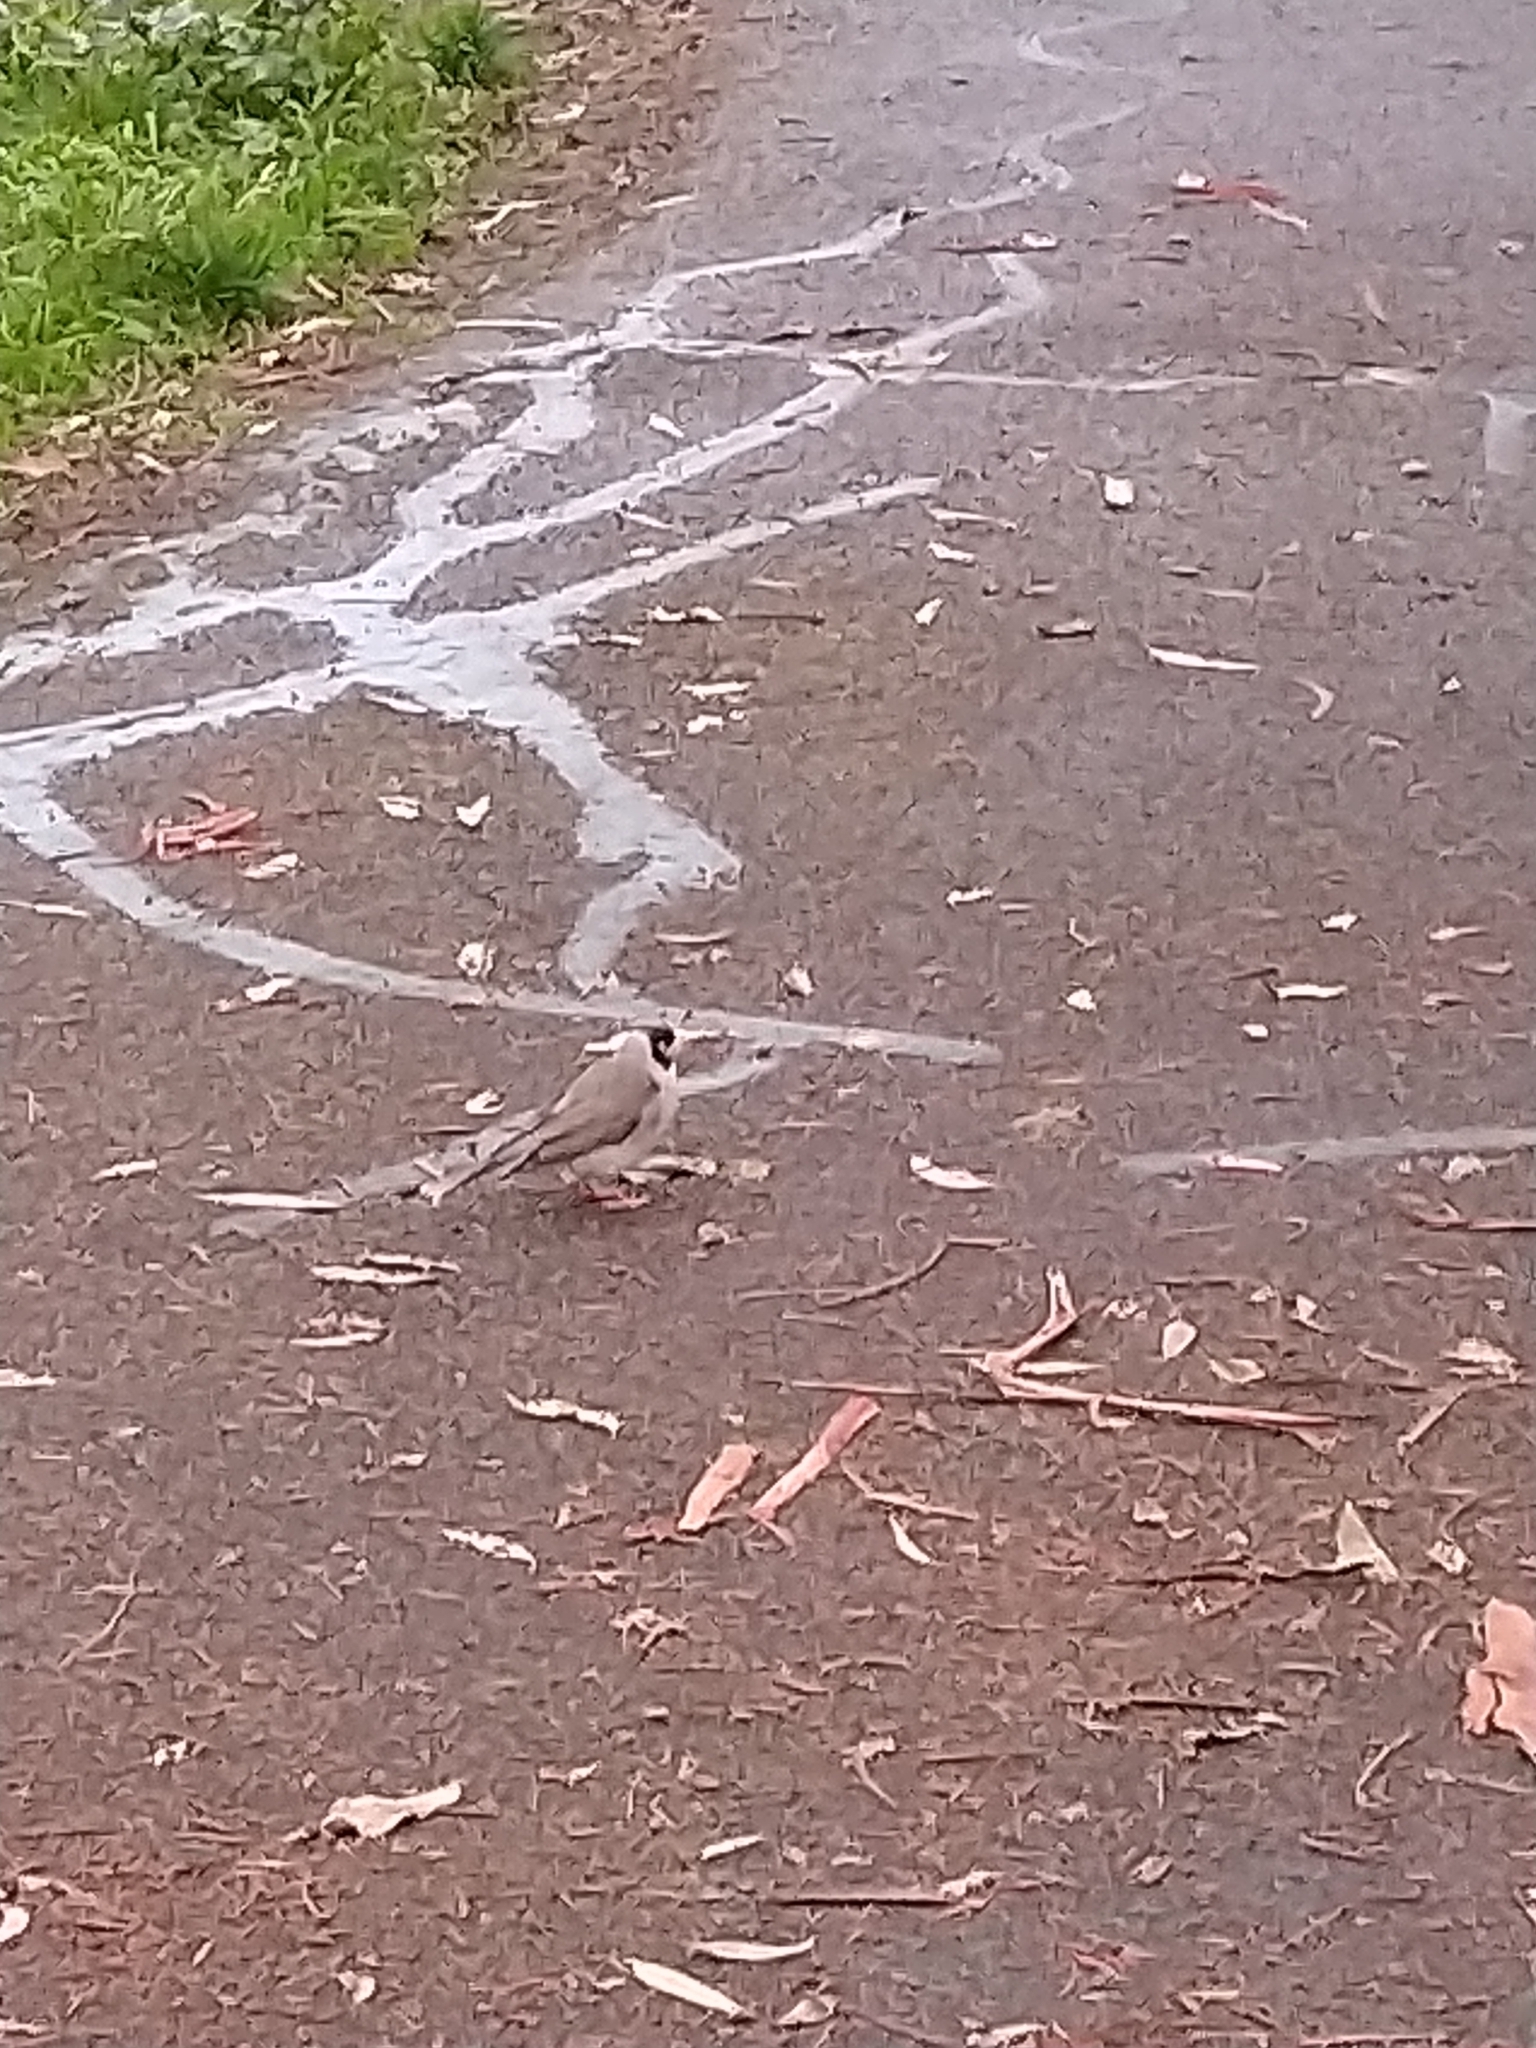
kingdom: Animalia
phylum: Chordata
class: Aves
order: Passeriformes
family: Meliphagidae
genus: Manorina
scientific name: Manorina melanocephala
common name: Noisy miner
